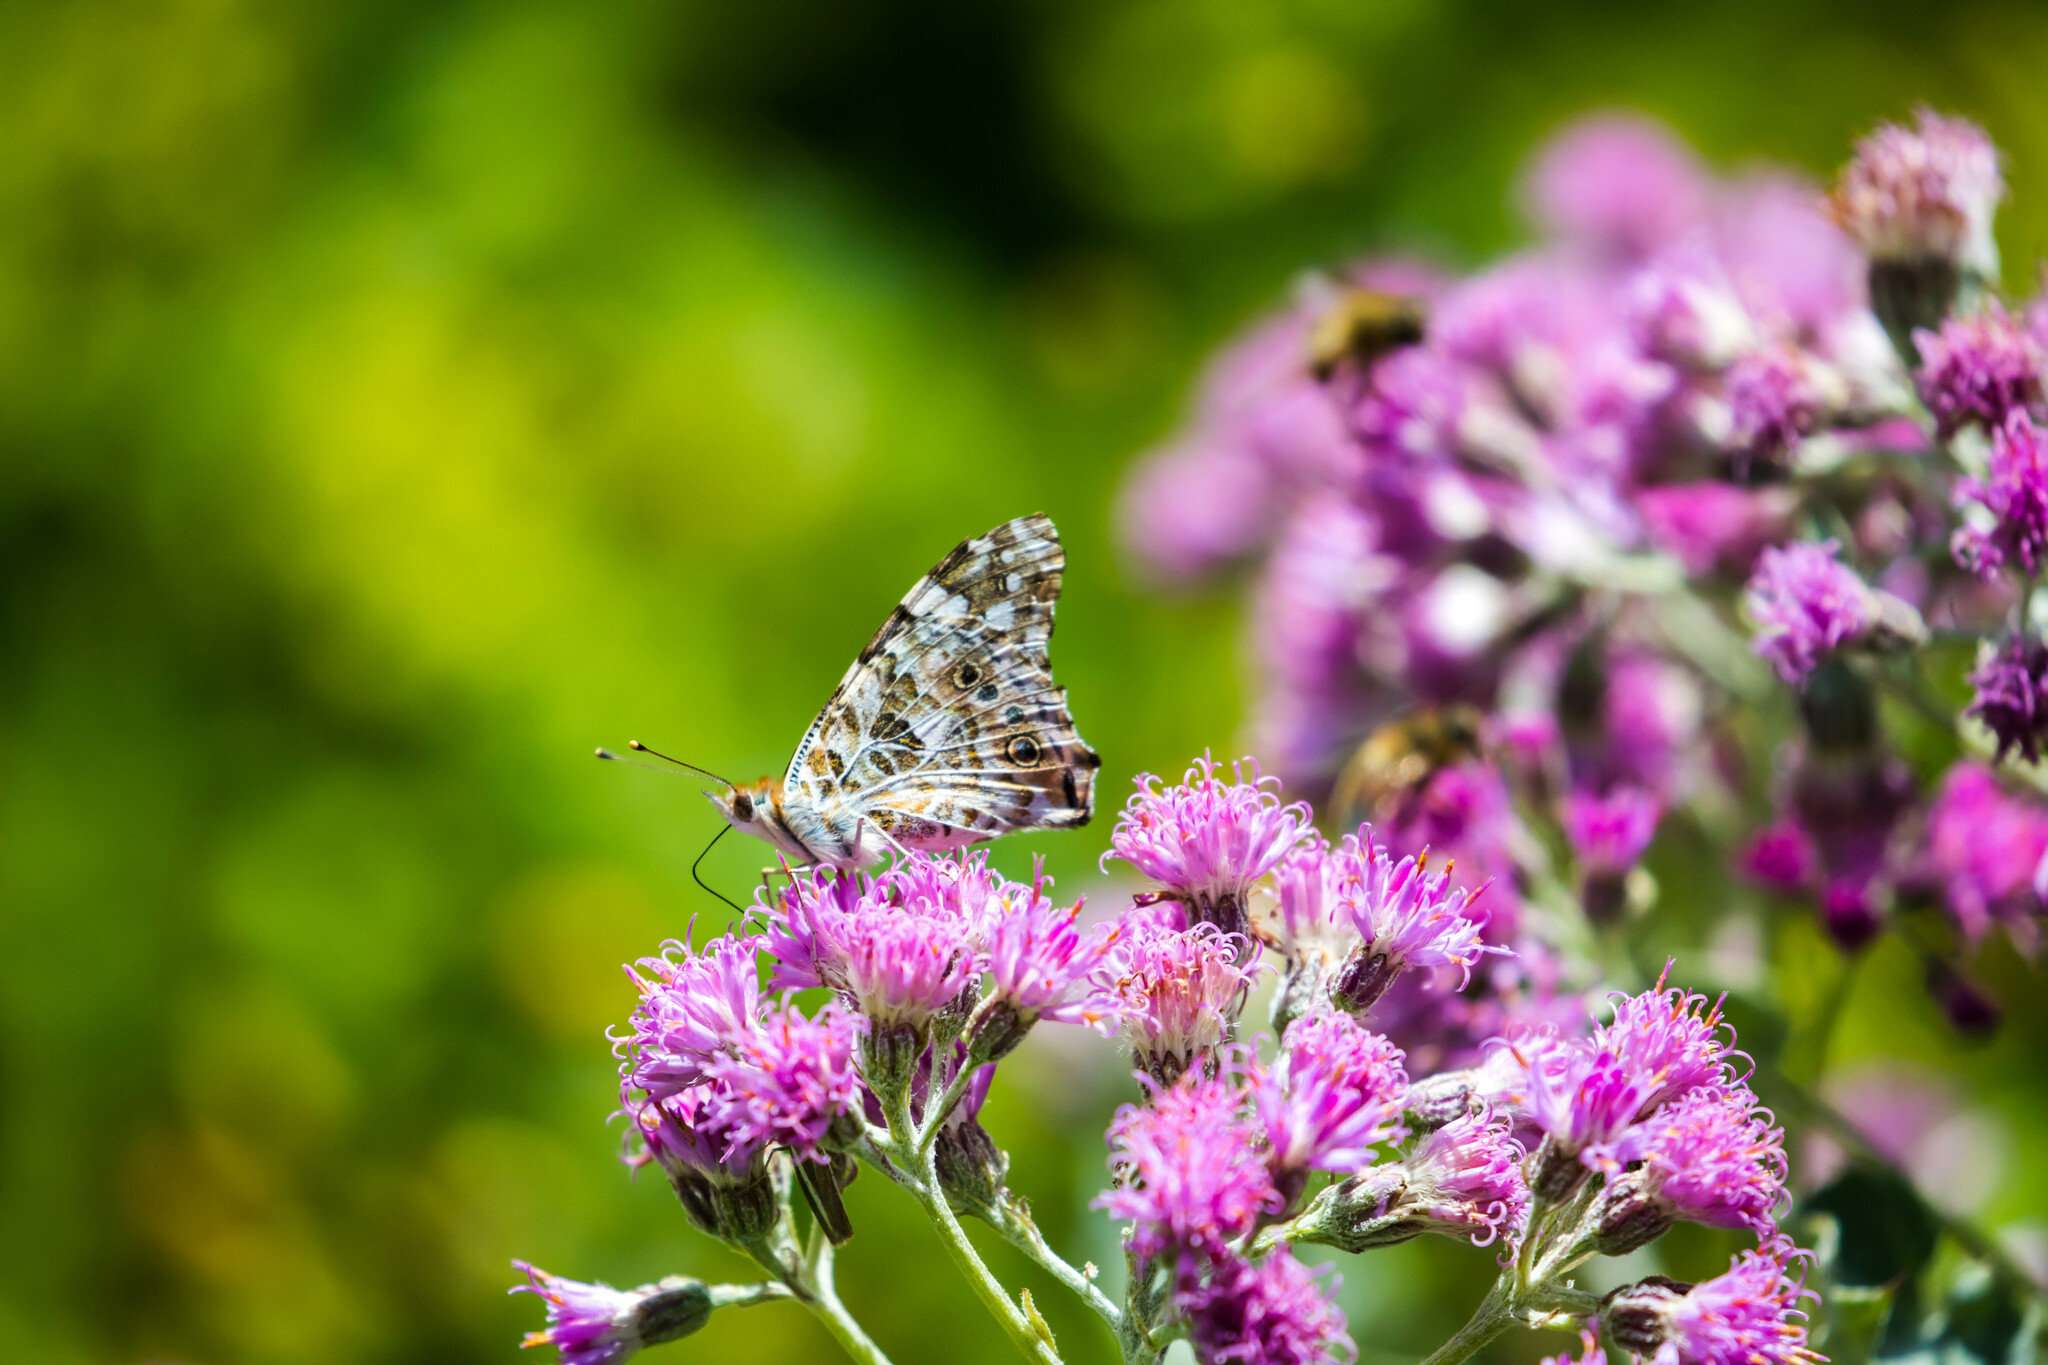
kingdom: Animalia
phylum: Arthropoda
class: Insecta
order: Lepidoptera
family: Nymphalidae
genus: Vanessa
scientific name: Vanessa cardui
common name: Painted lady
